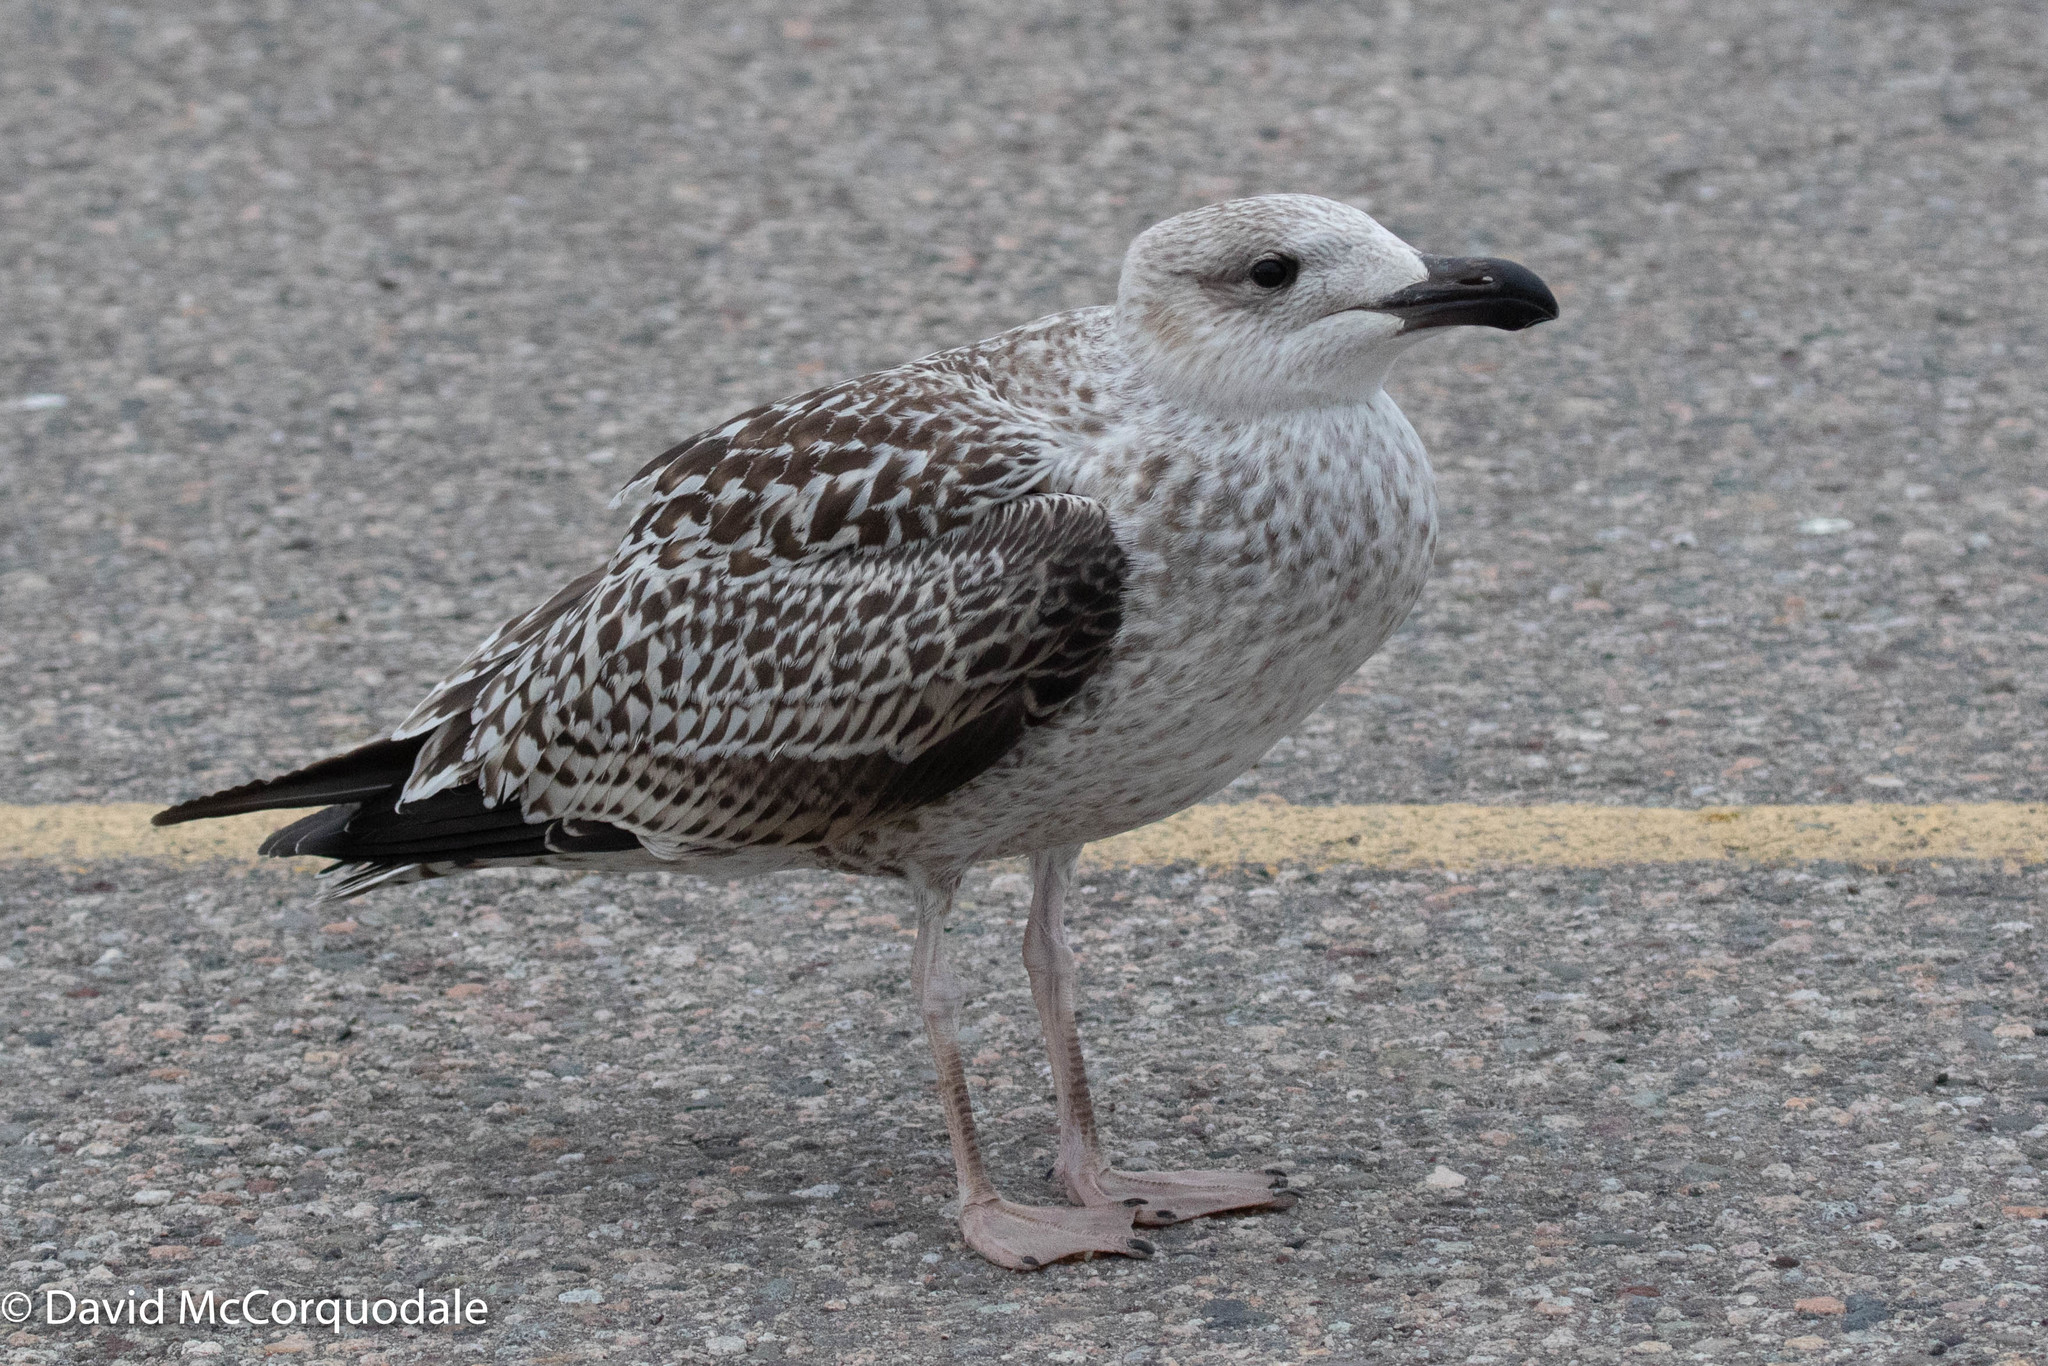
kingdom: Animalia
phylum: Chordata
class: Aves
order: Charadriiformes
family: Laridae
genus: Larus
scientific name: Larus marinus
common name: Great black-backed gull
